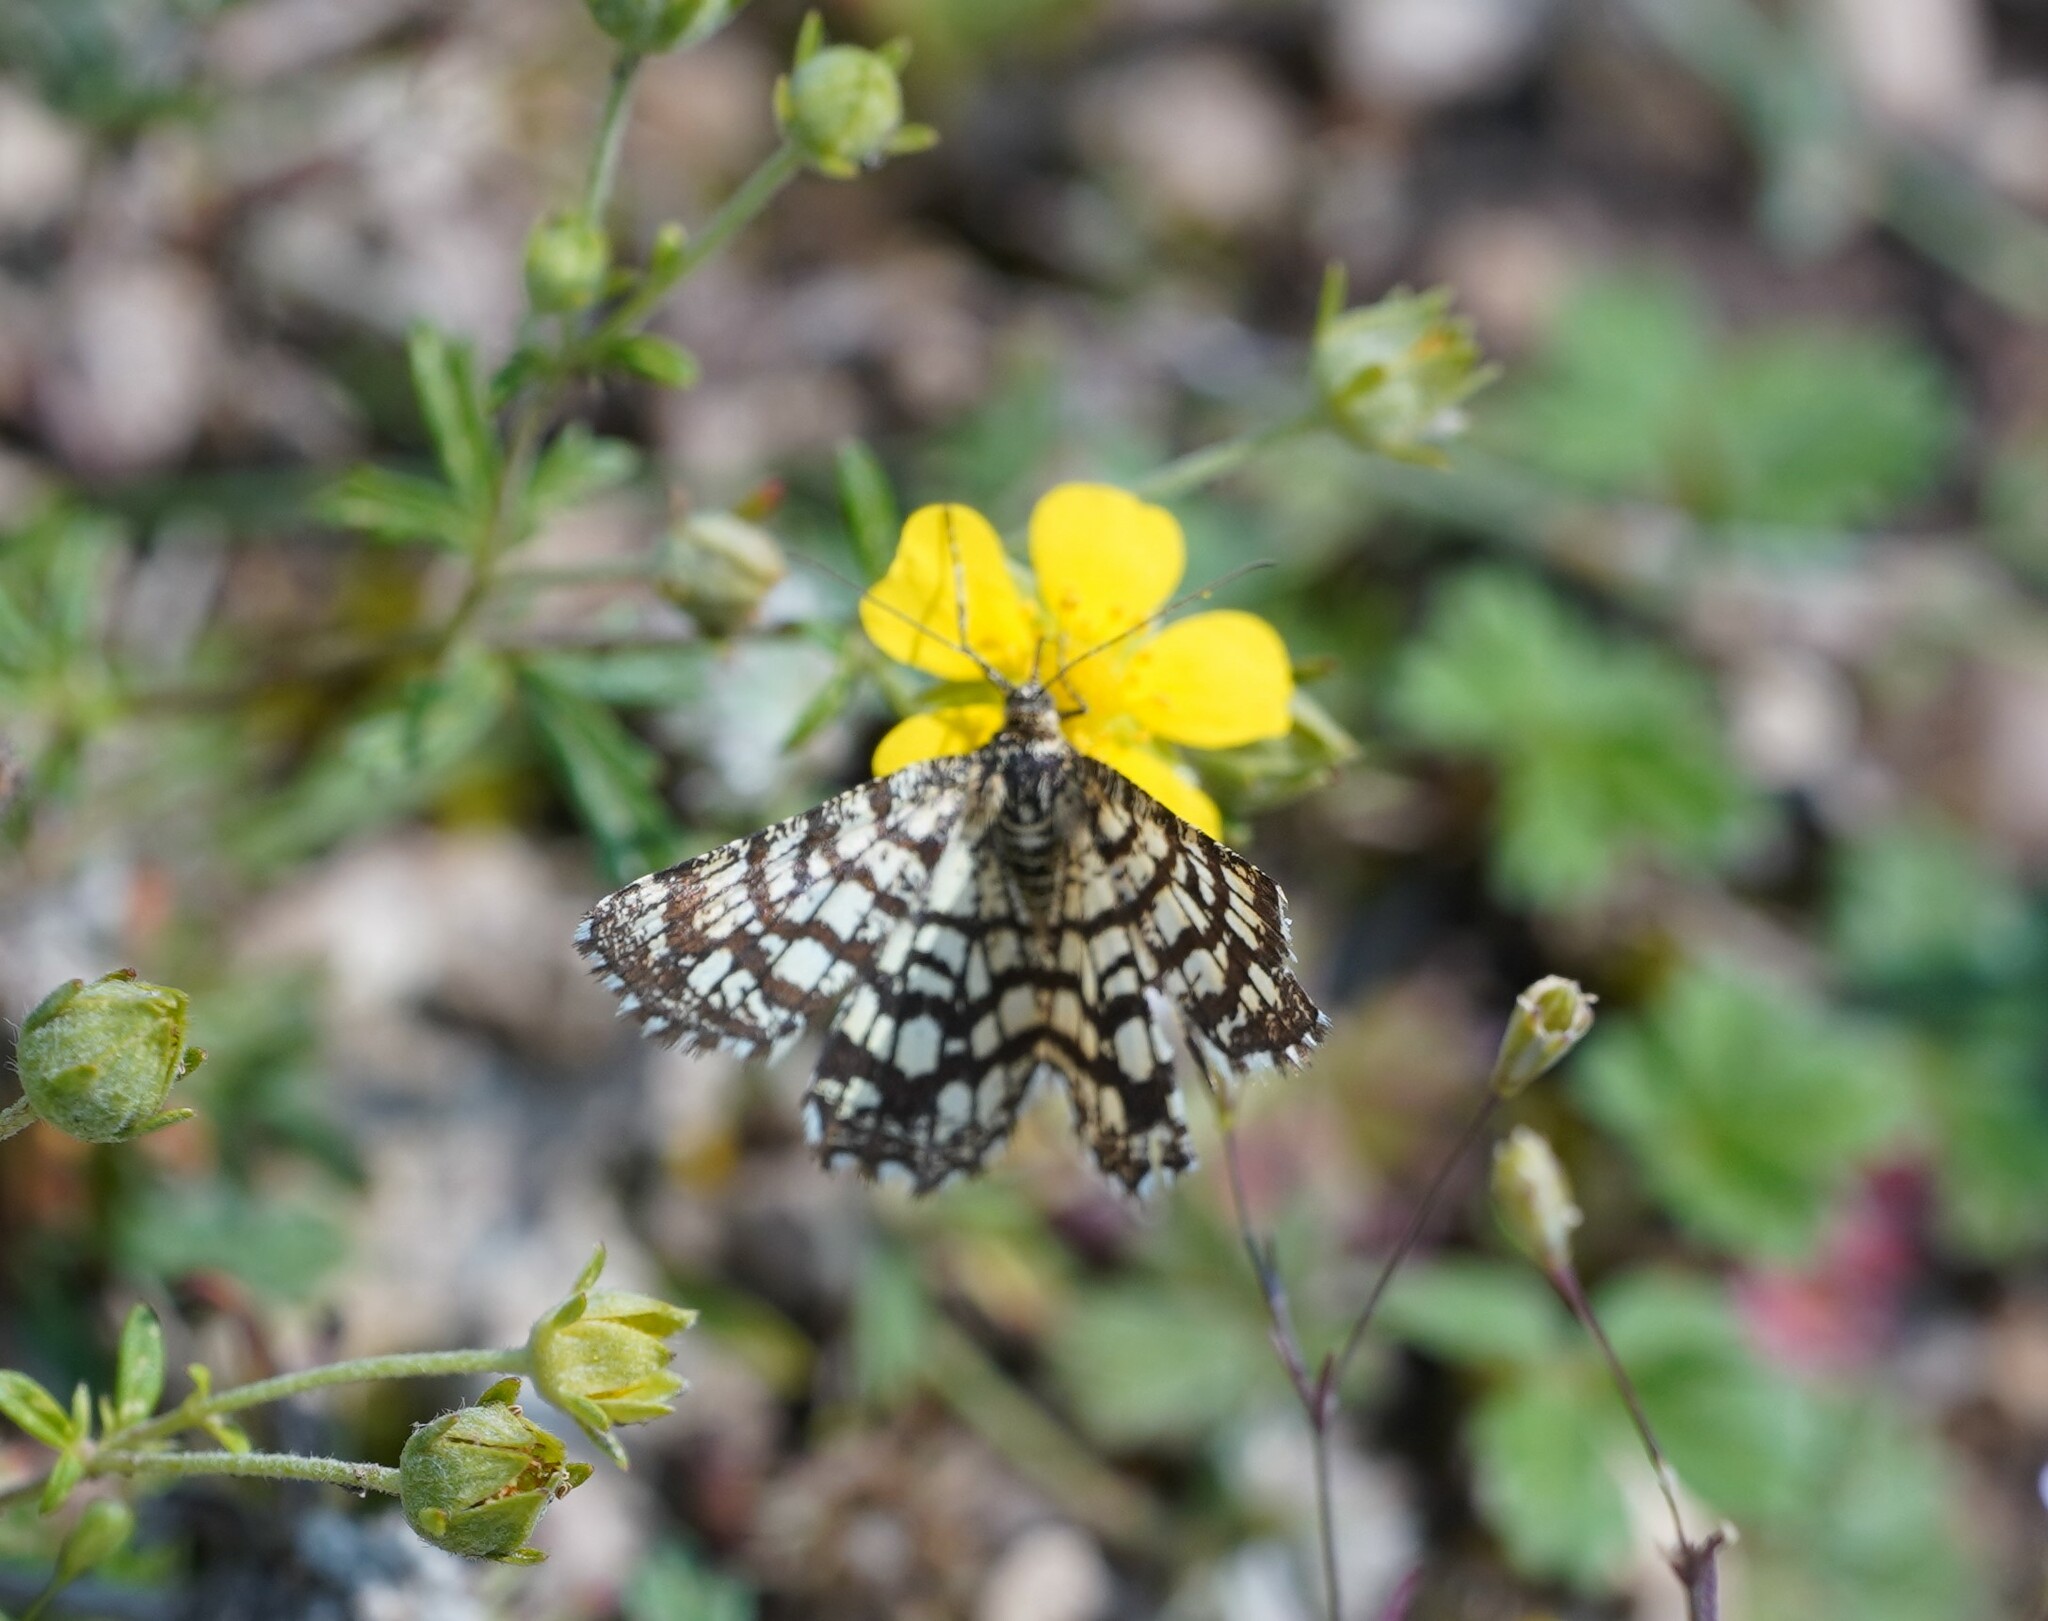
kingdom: Animalia
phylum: Arthropoda
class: Insecta
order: Lepidoptera
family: Geometridae
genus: Chiasmia
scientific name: Chiasmia clathrata
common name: Latticed heath
